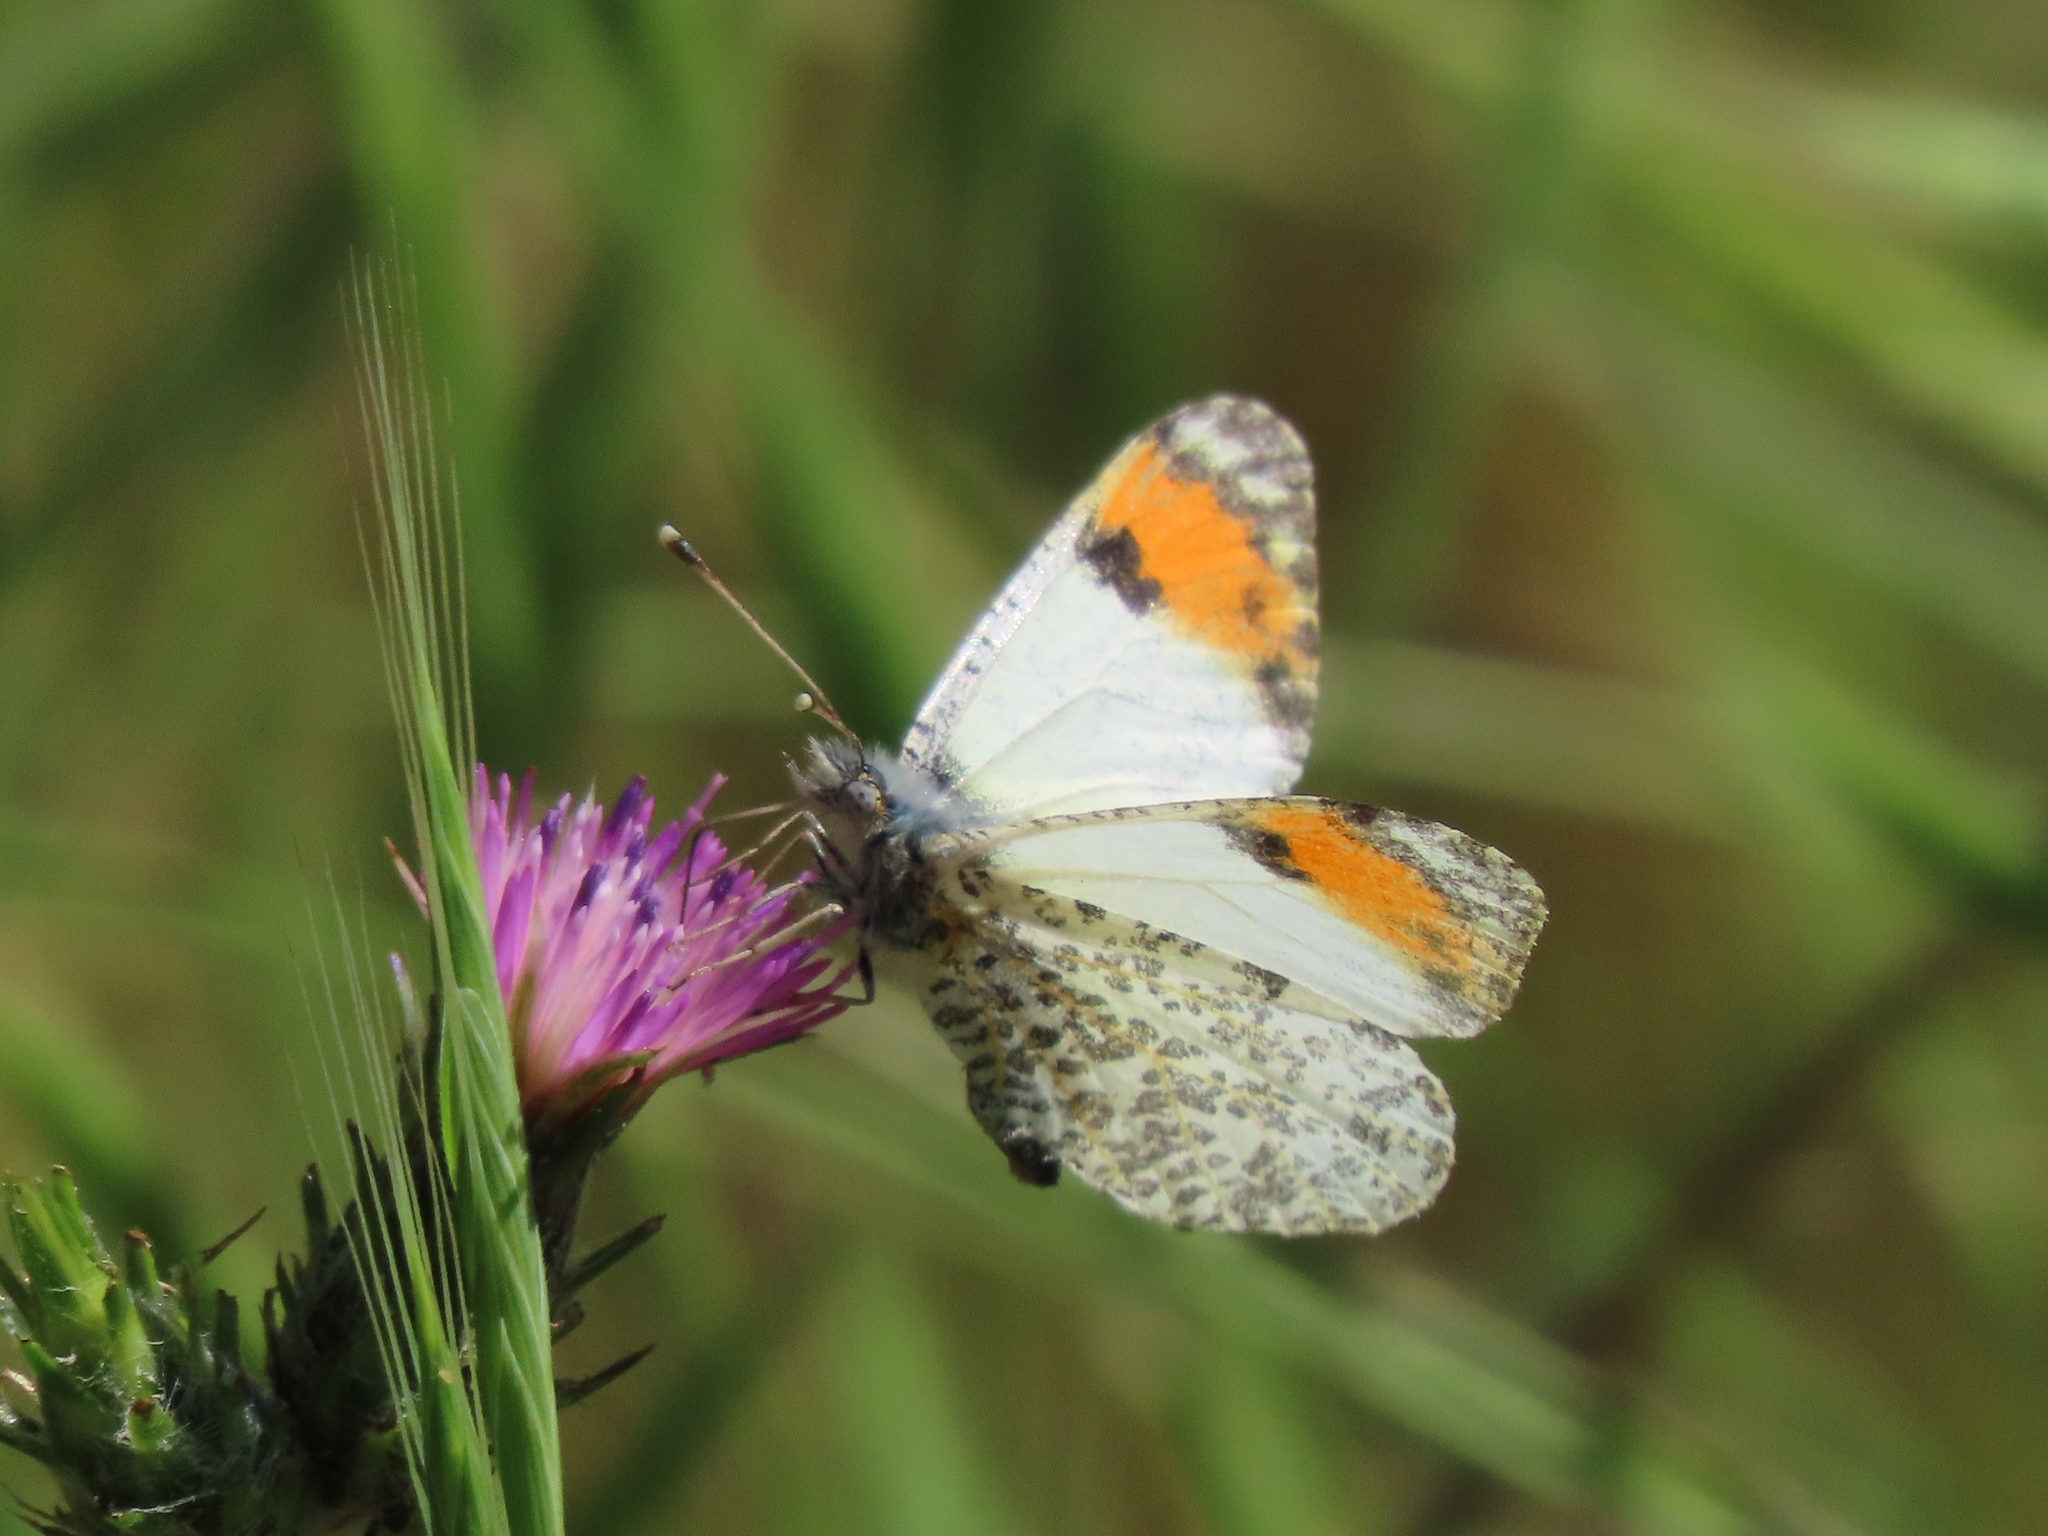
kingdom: Animalia
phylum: Arthropoda
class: Insecta
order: Lepidoptera
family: Pieridae
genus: Anthocharis
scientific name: Anthocharis sara
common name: Sara's orangetip
